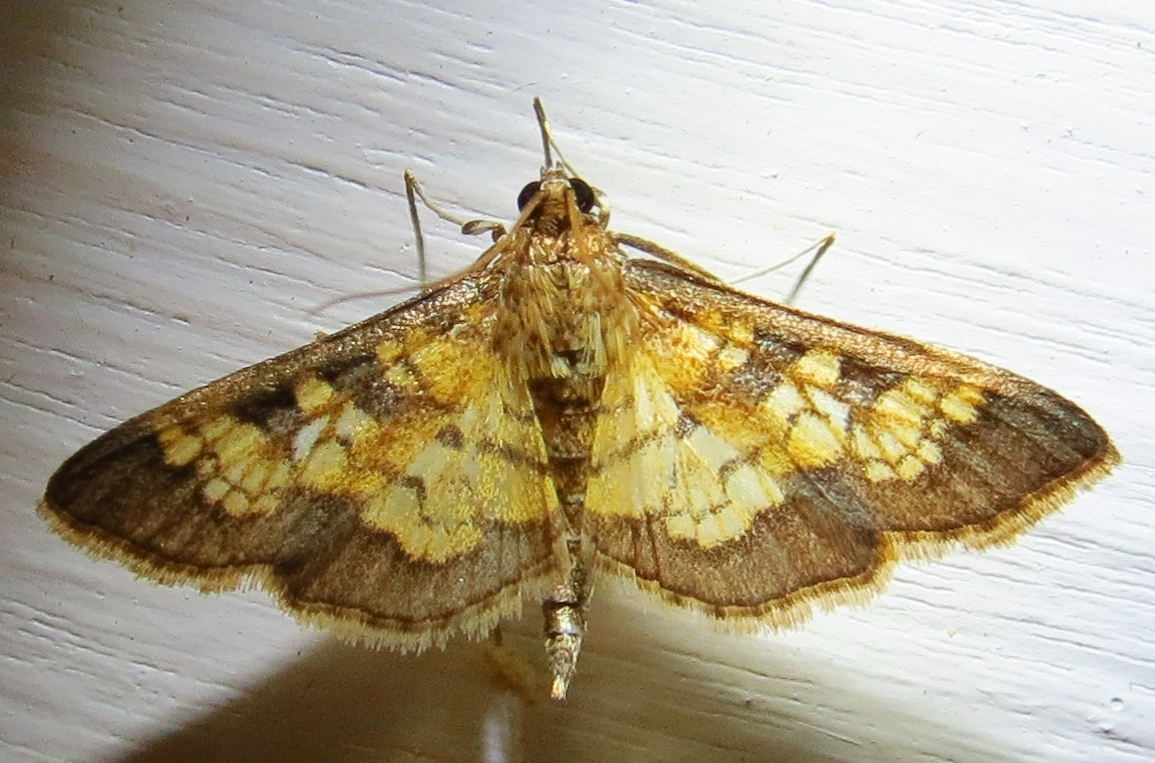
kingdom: Animalia
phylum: Arthropoda
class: Insecta
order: Lepidoptera
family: Crambidae
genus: Epipagis
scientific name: Epipagis adipaloides
